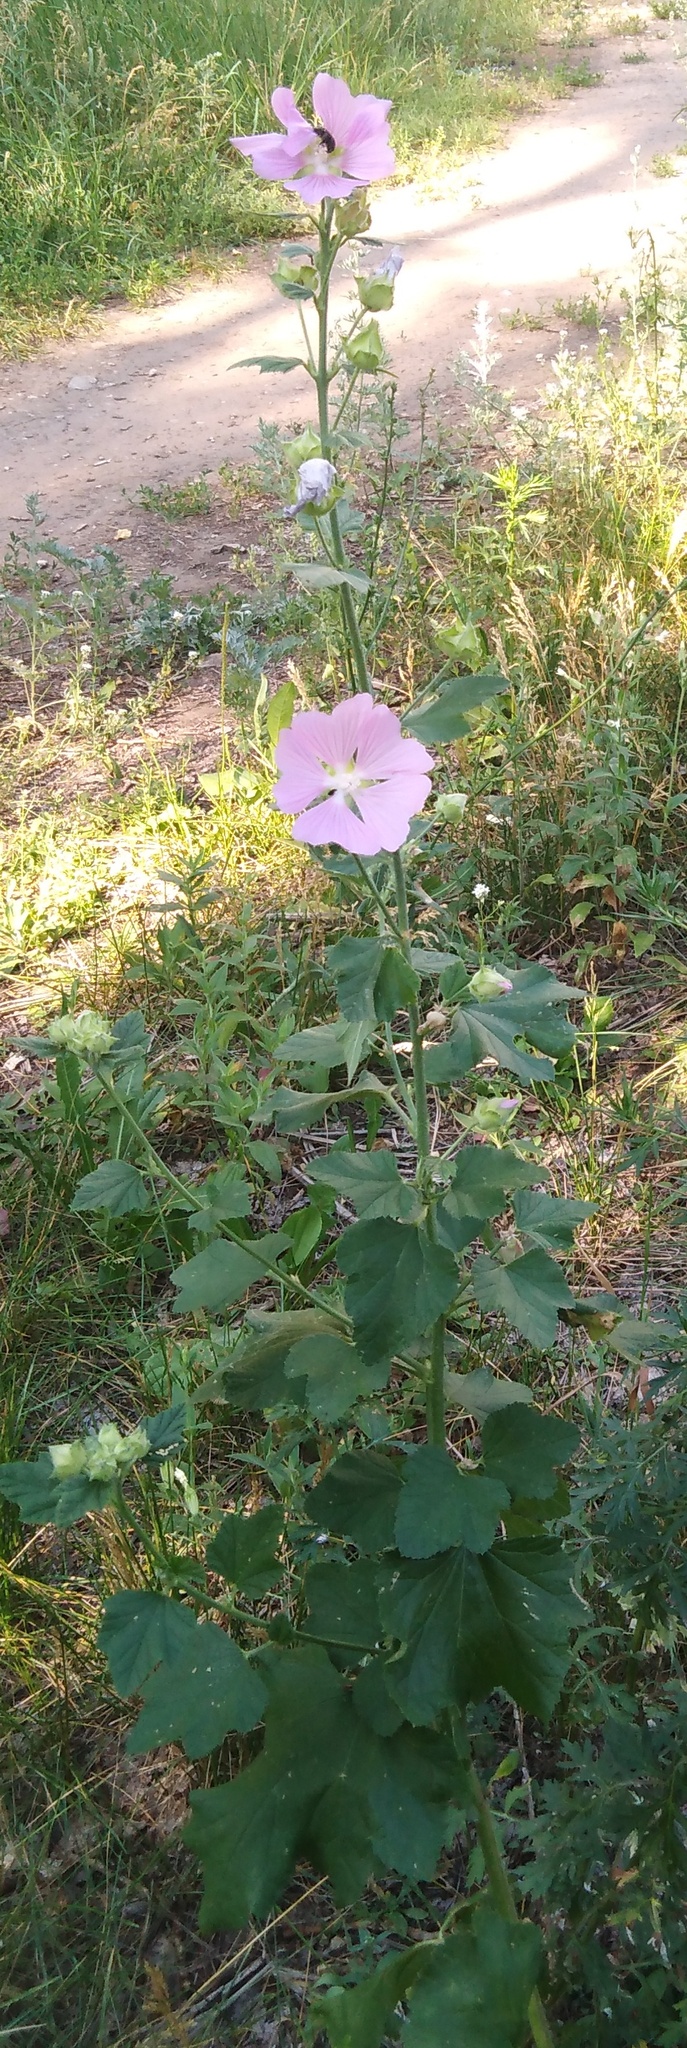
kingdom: Plantae
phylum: Tracheophyta
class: Magnoliopsida
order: Malvales
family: Malvaceae
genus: Malva
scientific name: Malva thuringiaca
